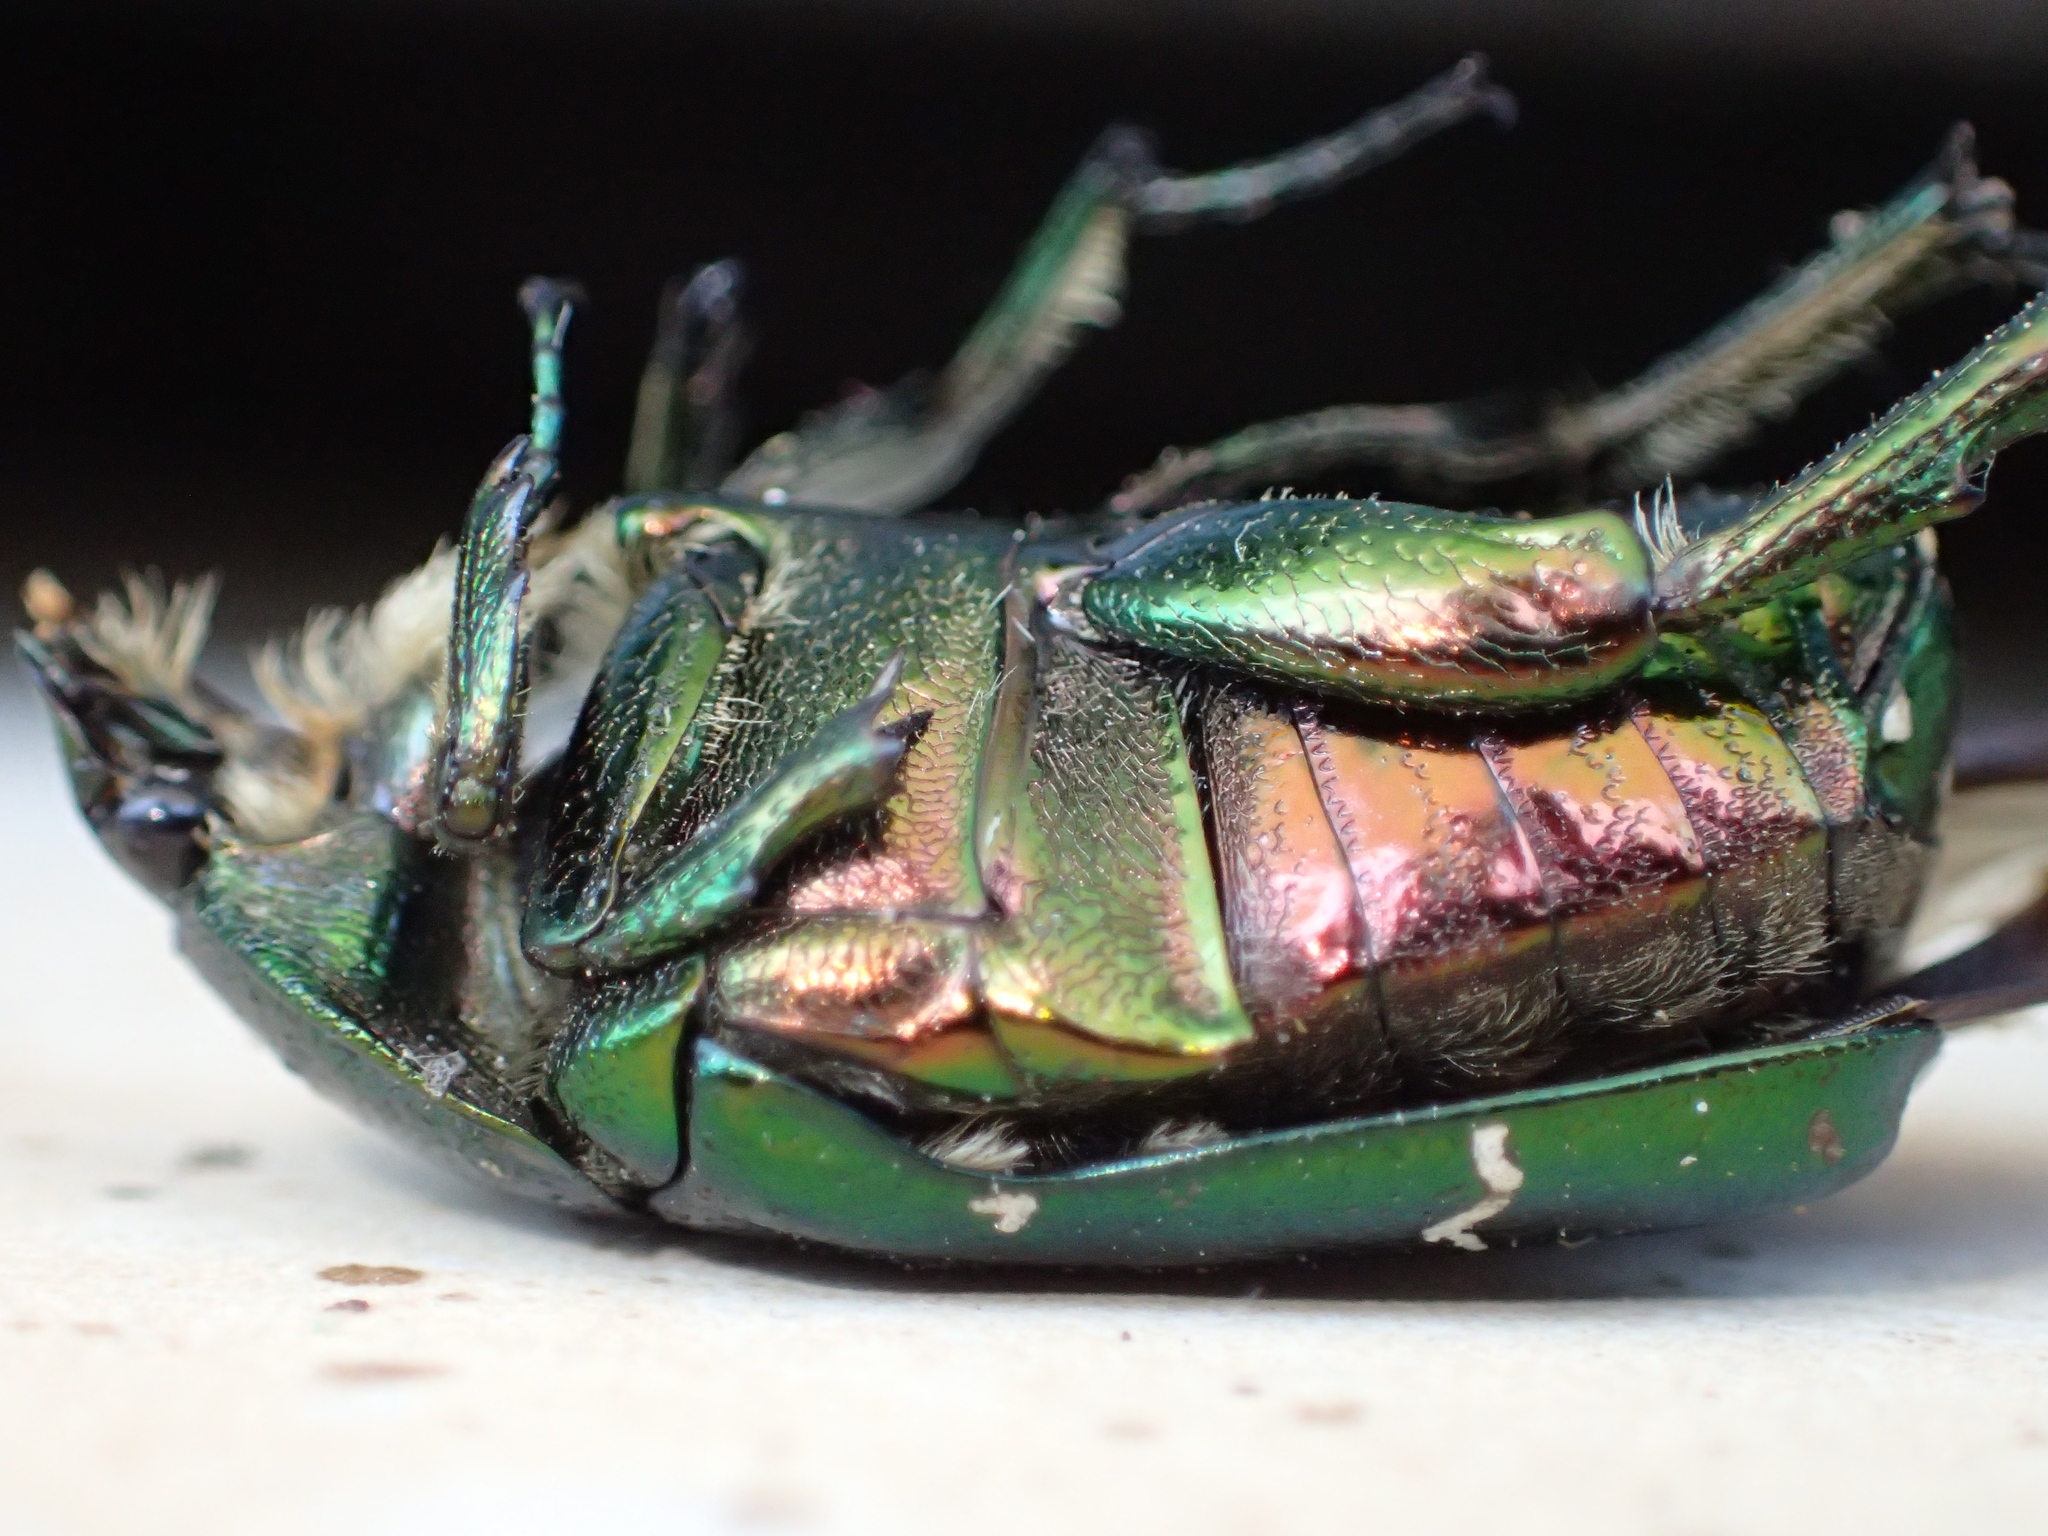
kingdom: Animalia
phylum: Arthropoda
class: Insecta
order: Coleoptera
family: Scarabaeidae
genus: Cetonia
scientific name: Cetonia aurata
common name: Rose chafer
